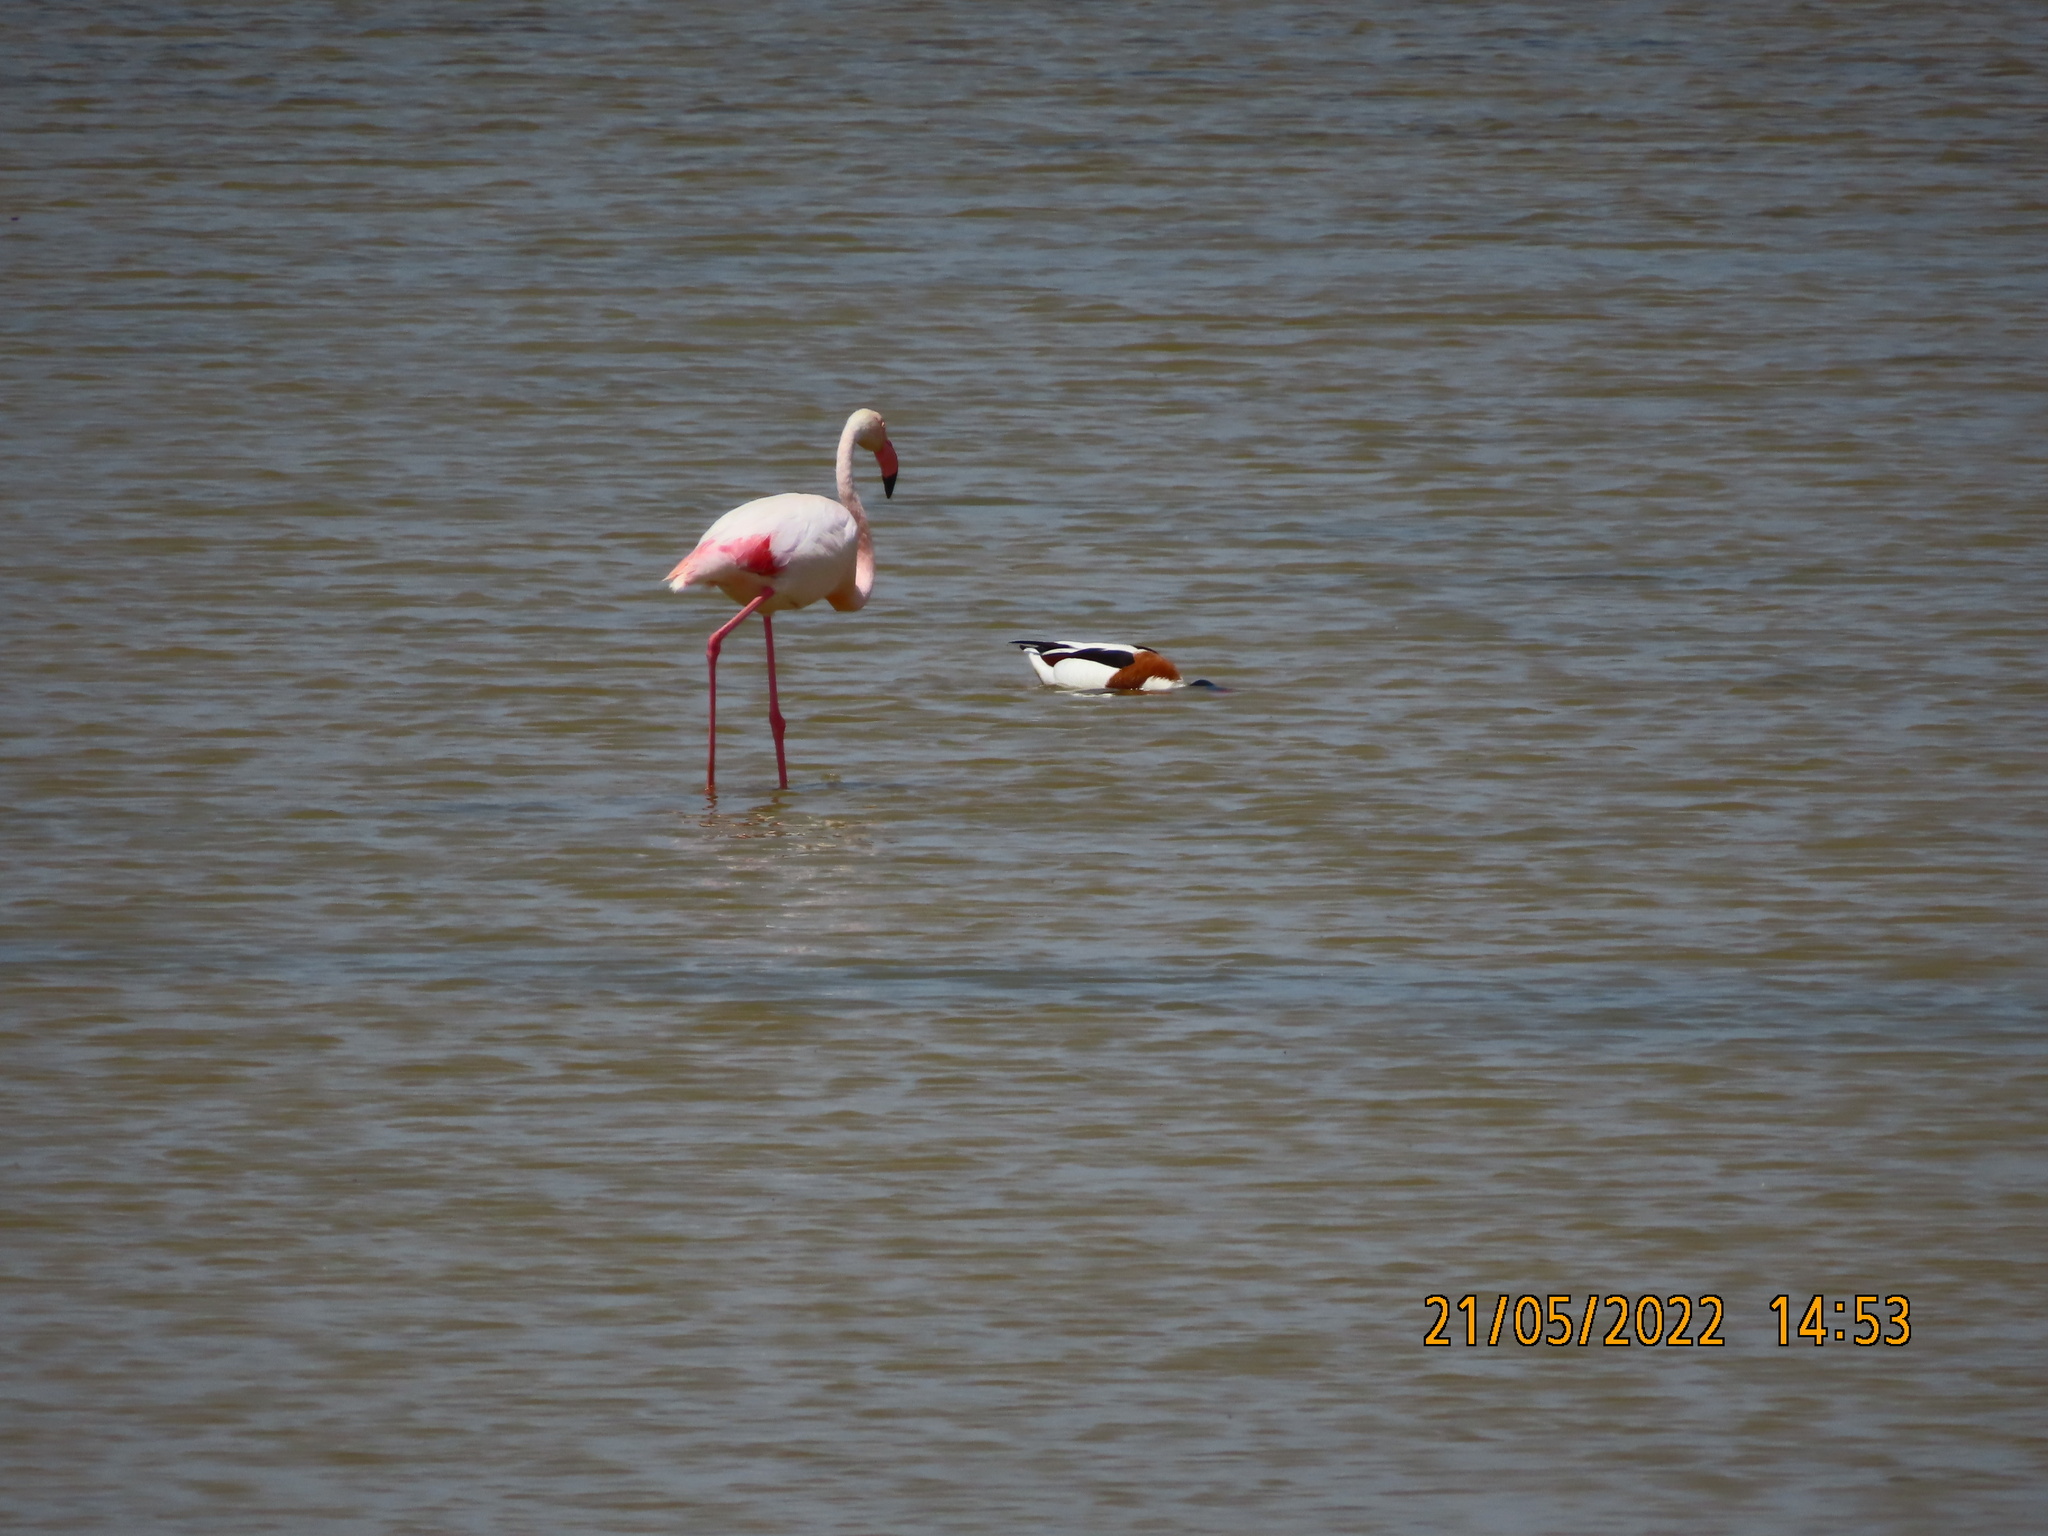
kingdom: Animalia
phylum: Chordata
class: Aves
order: Phoenicopteriformes
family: Phoenicopteridae
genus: Phoenicopterus
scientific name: Phoenicopterus roseus
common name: Greater flamingo
